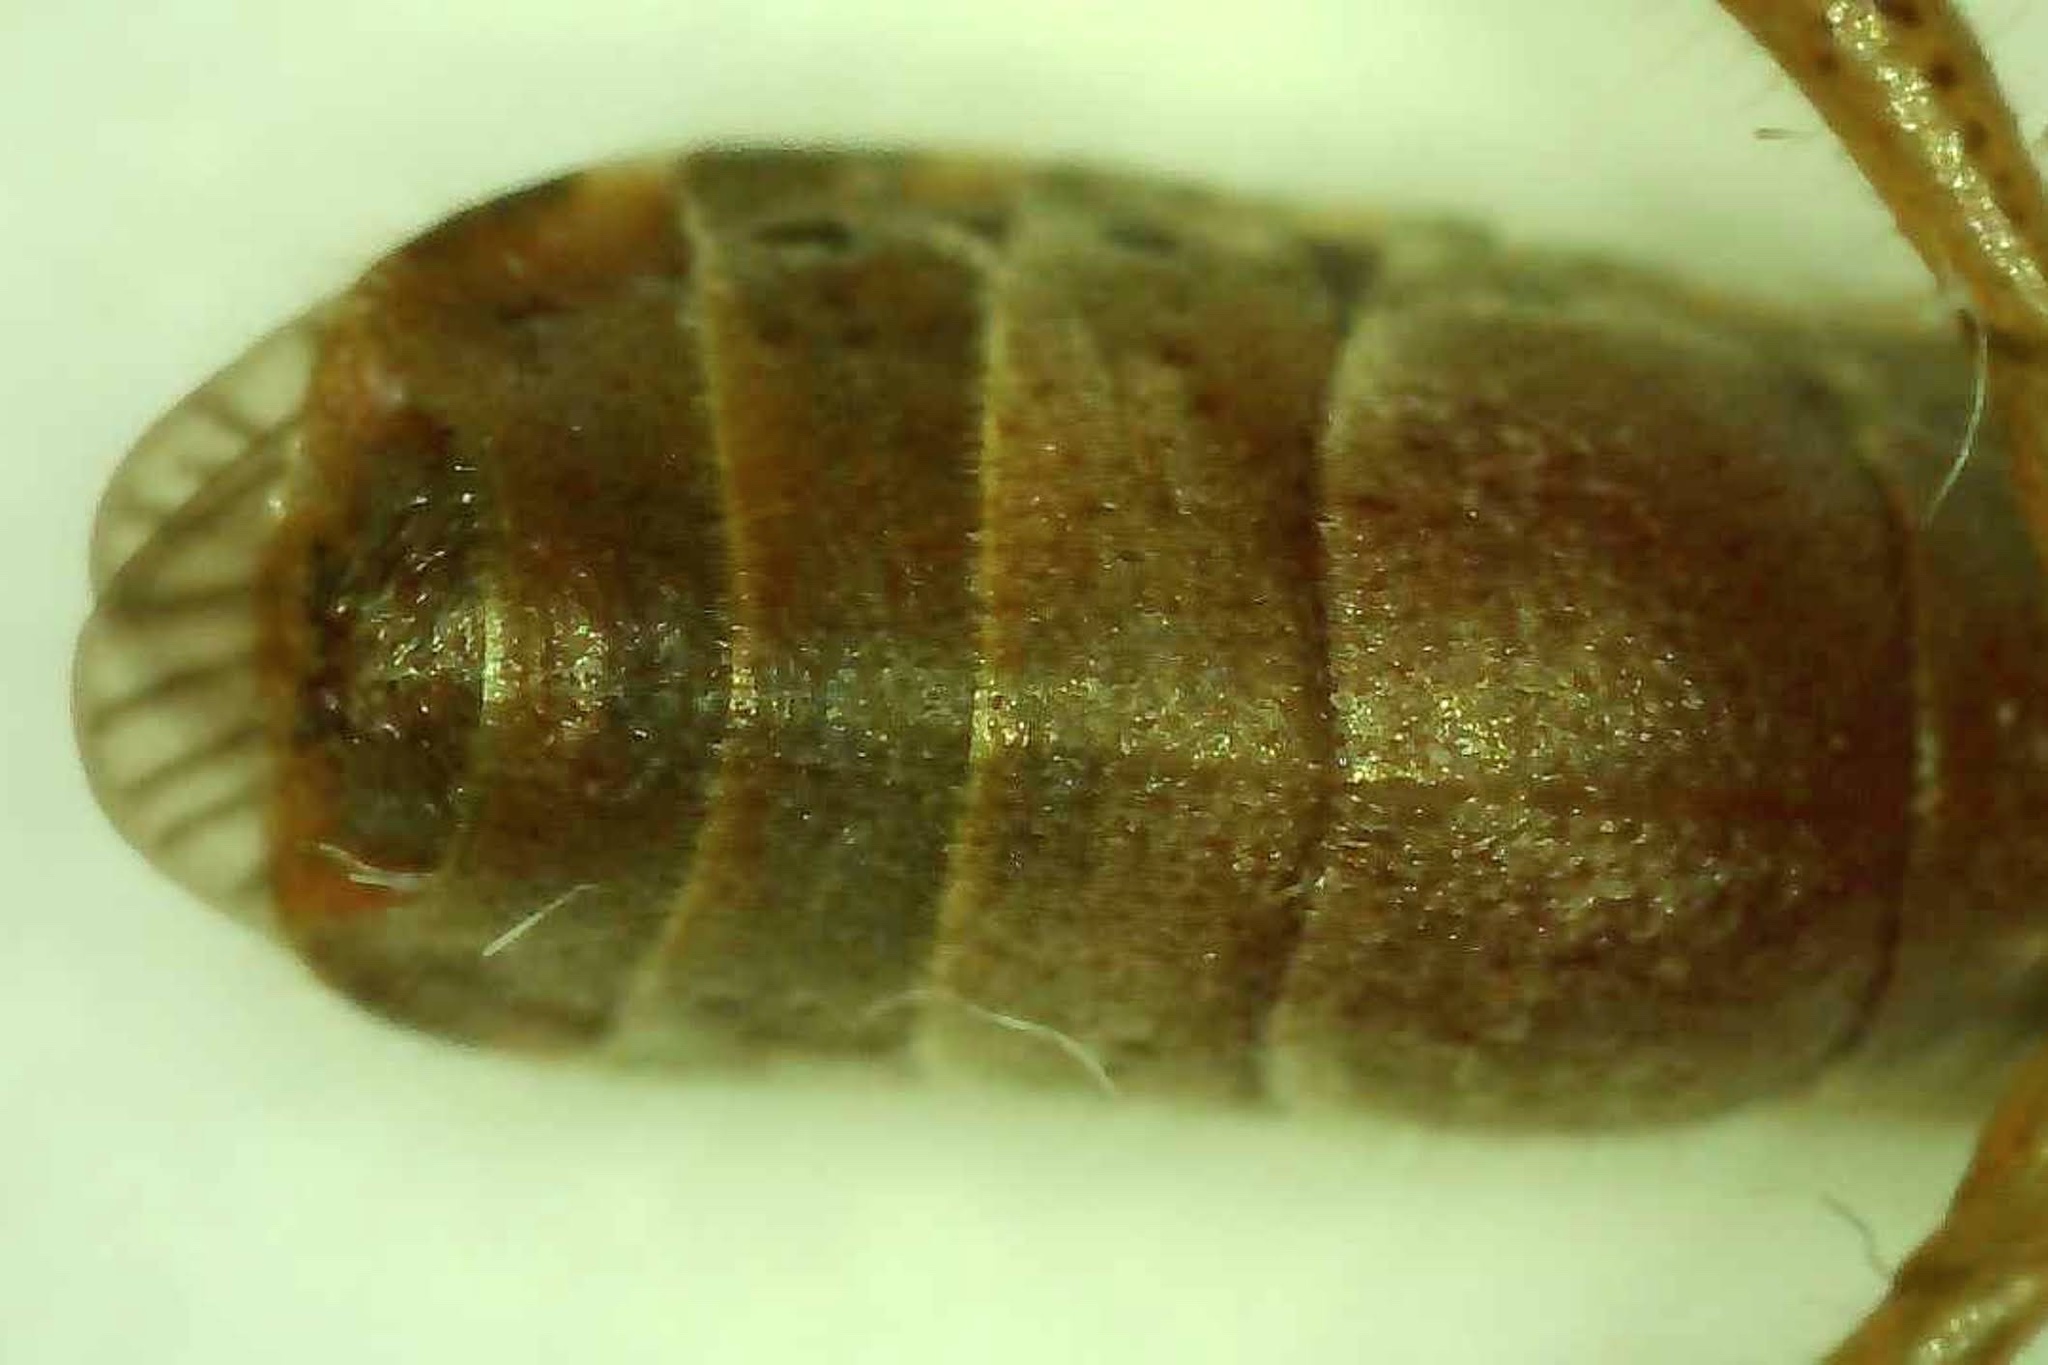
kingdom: Animalia
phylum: Arthropoda
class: Insecta
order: Hemiptera
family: Alydidae
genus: Alydus
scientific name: Alydus pilosulus
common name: Broad-headed bug
